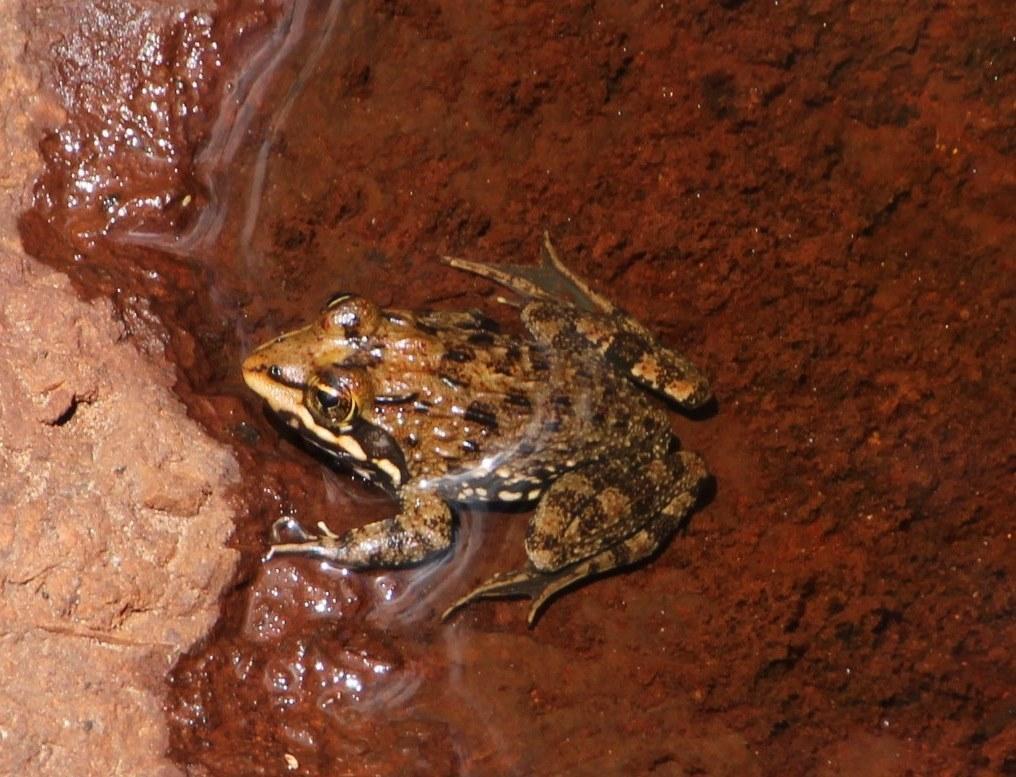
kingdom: Animalia
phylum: Chordata
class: Amphibia
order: Anura
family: Pyxicephalidae
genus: Amietia
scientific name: Amietia fuscigula
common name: Cape rana
